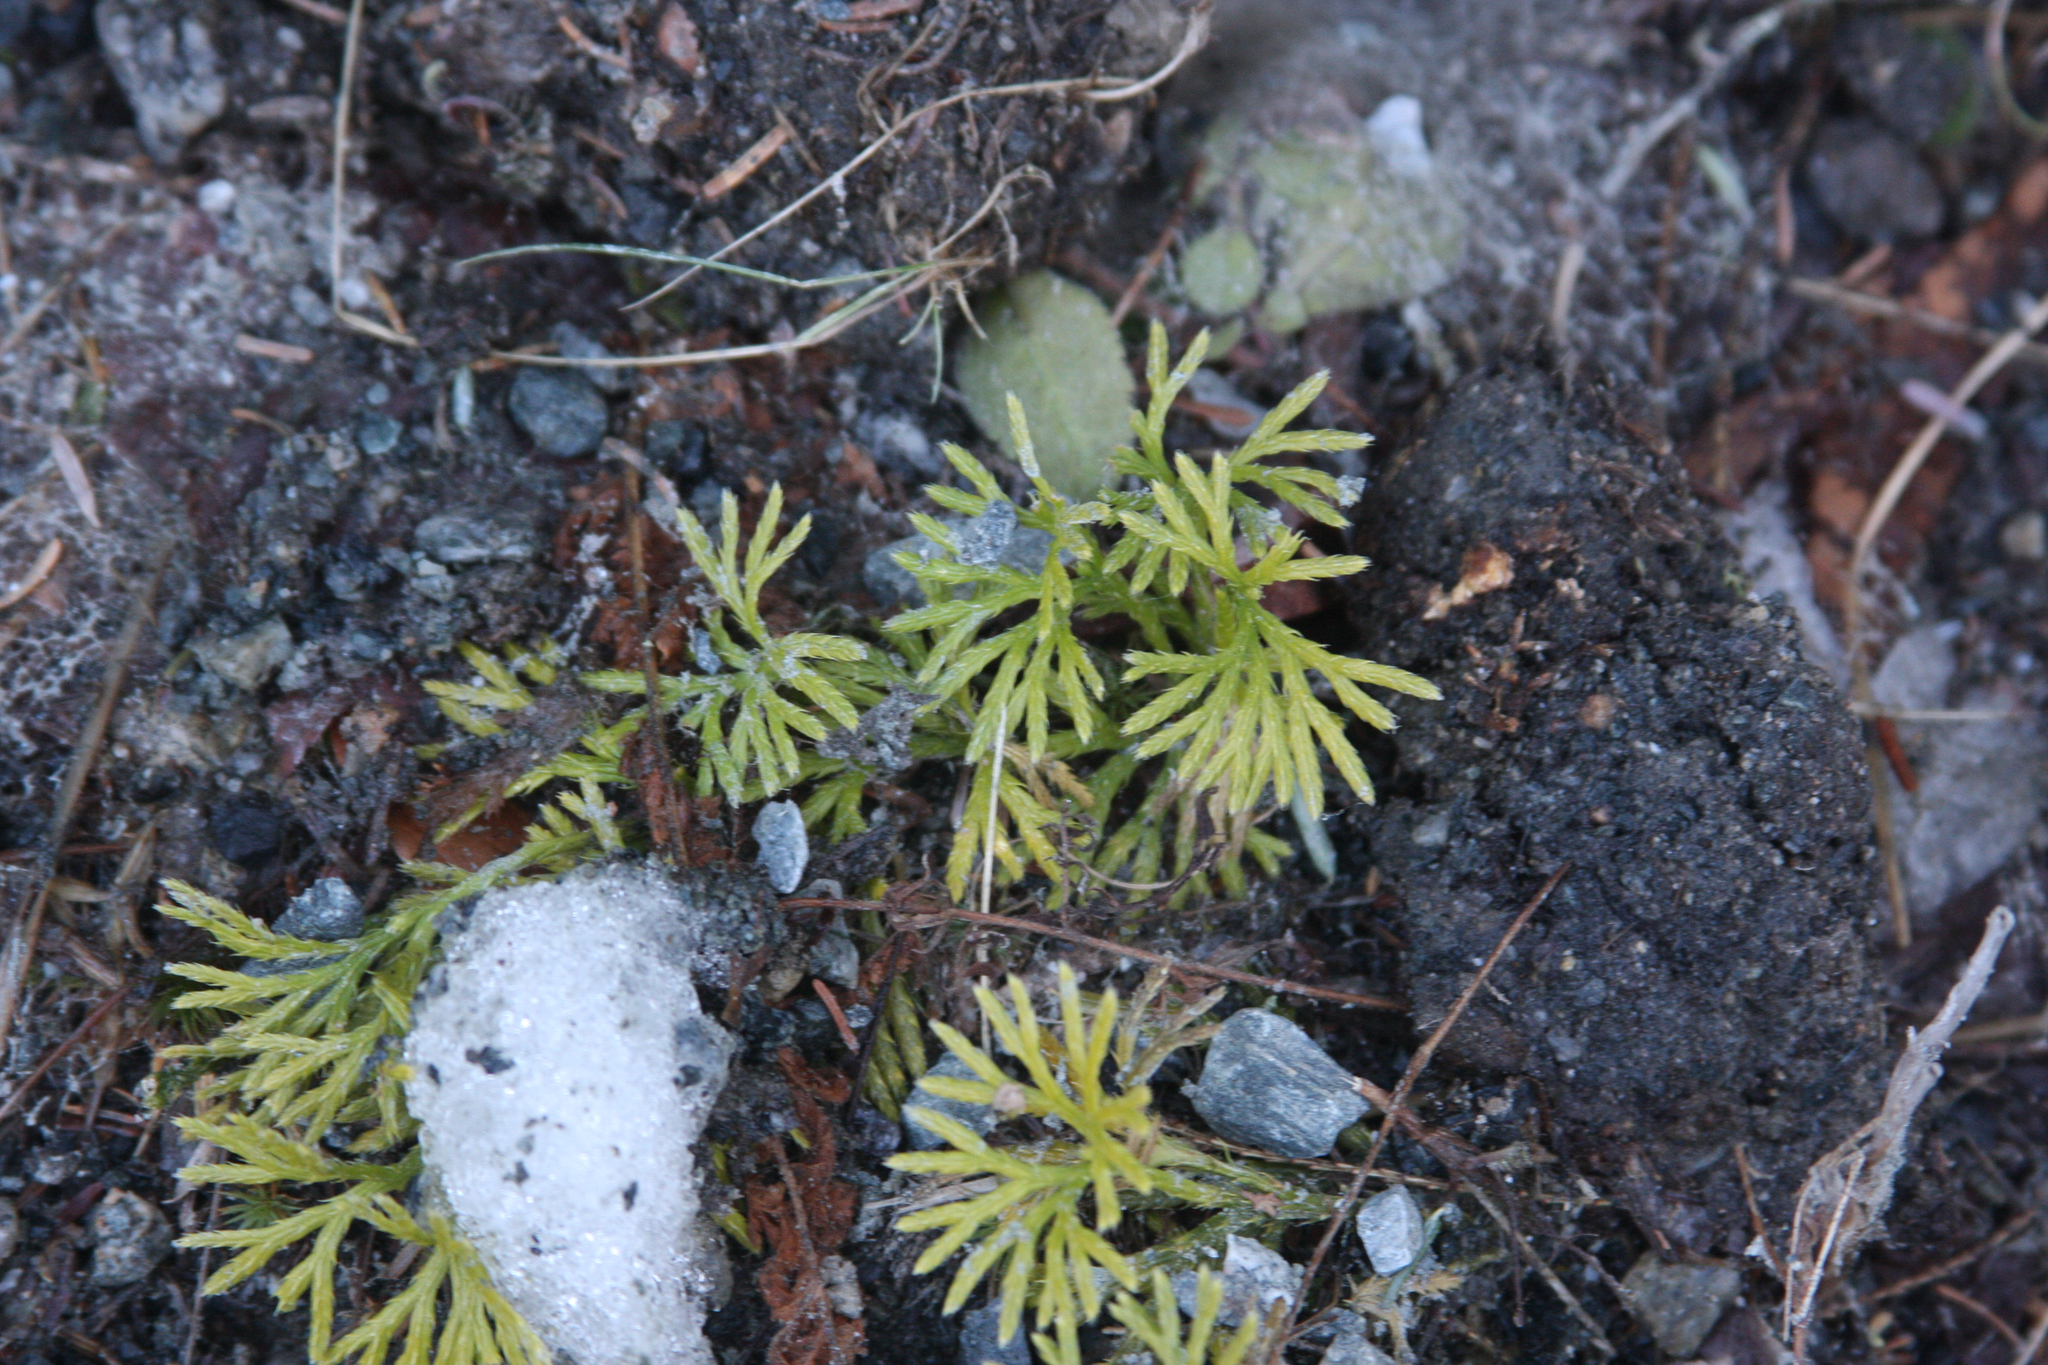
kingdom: Plantae
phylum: Tracheophyta
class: Lycopodiopsida
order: Lycopodiales
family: Lycopodiaceae
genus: Diphasiastrum
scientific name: Diphasiastrum digitatum
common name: Southern running-pine
